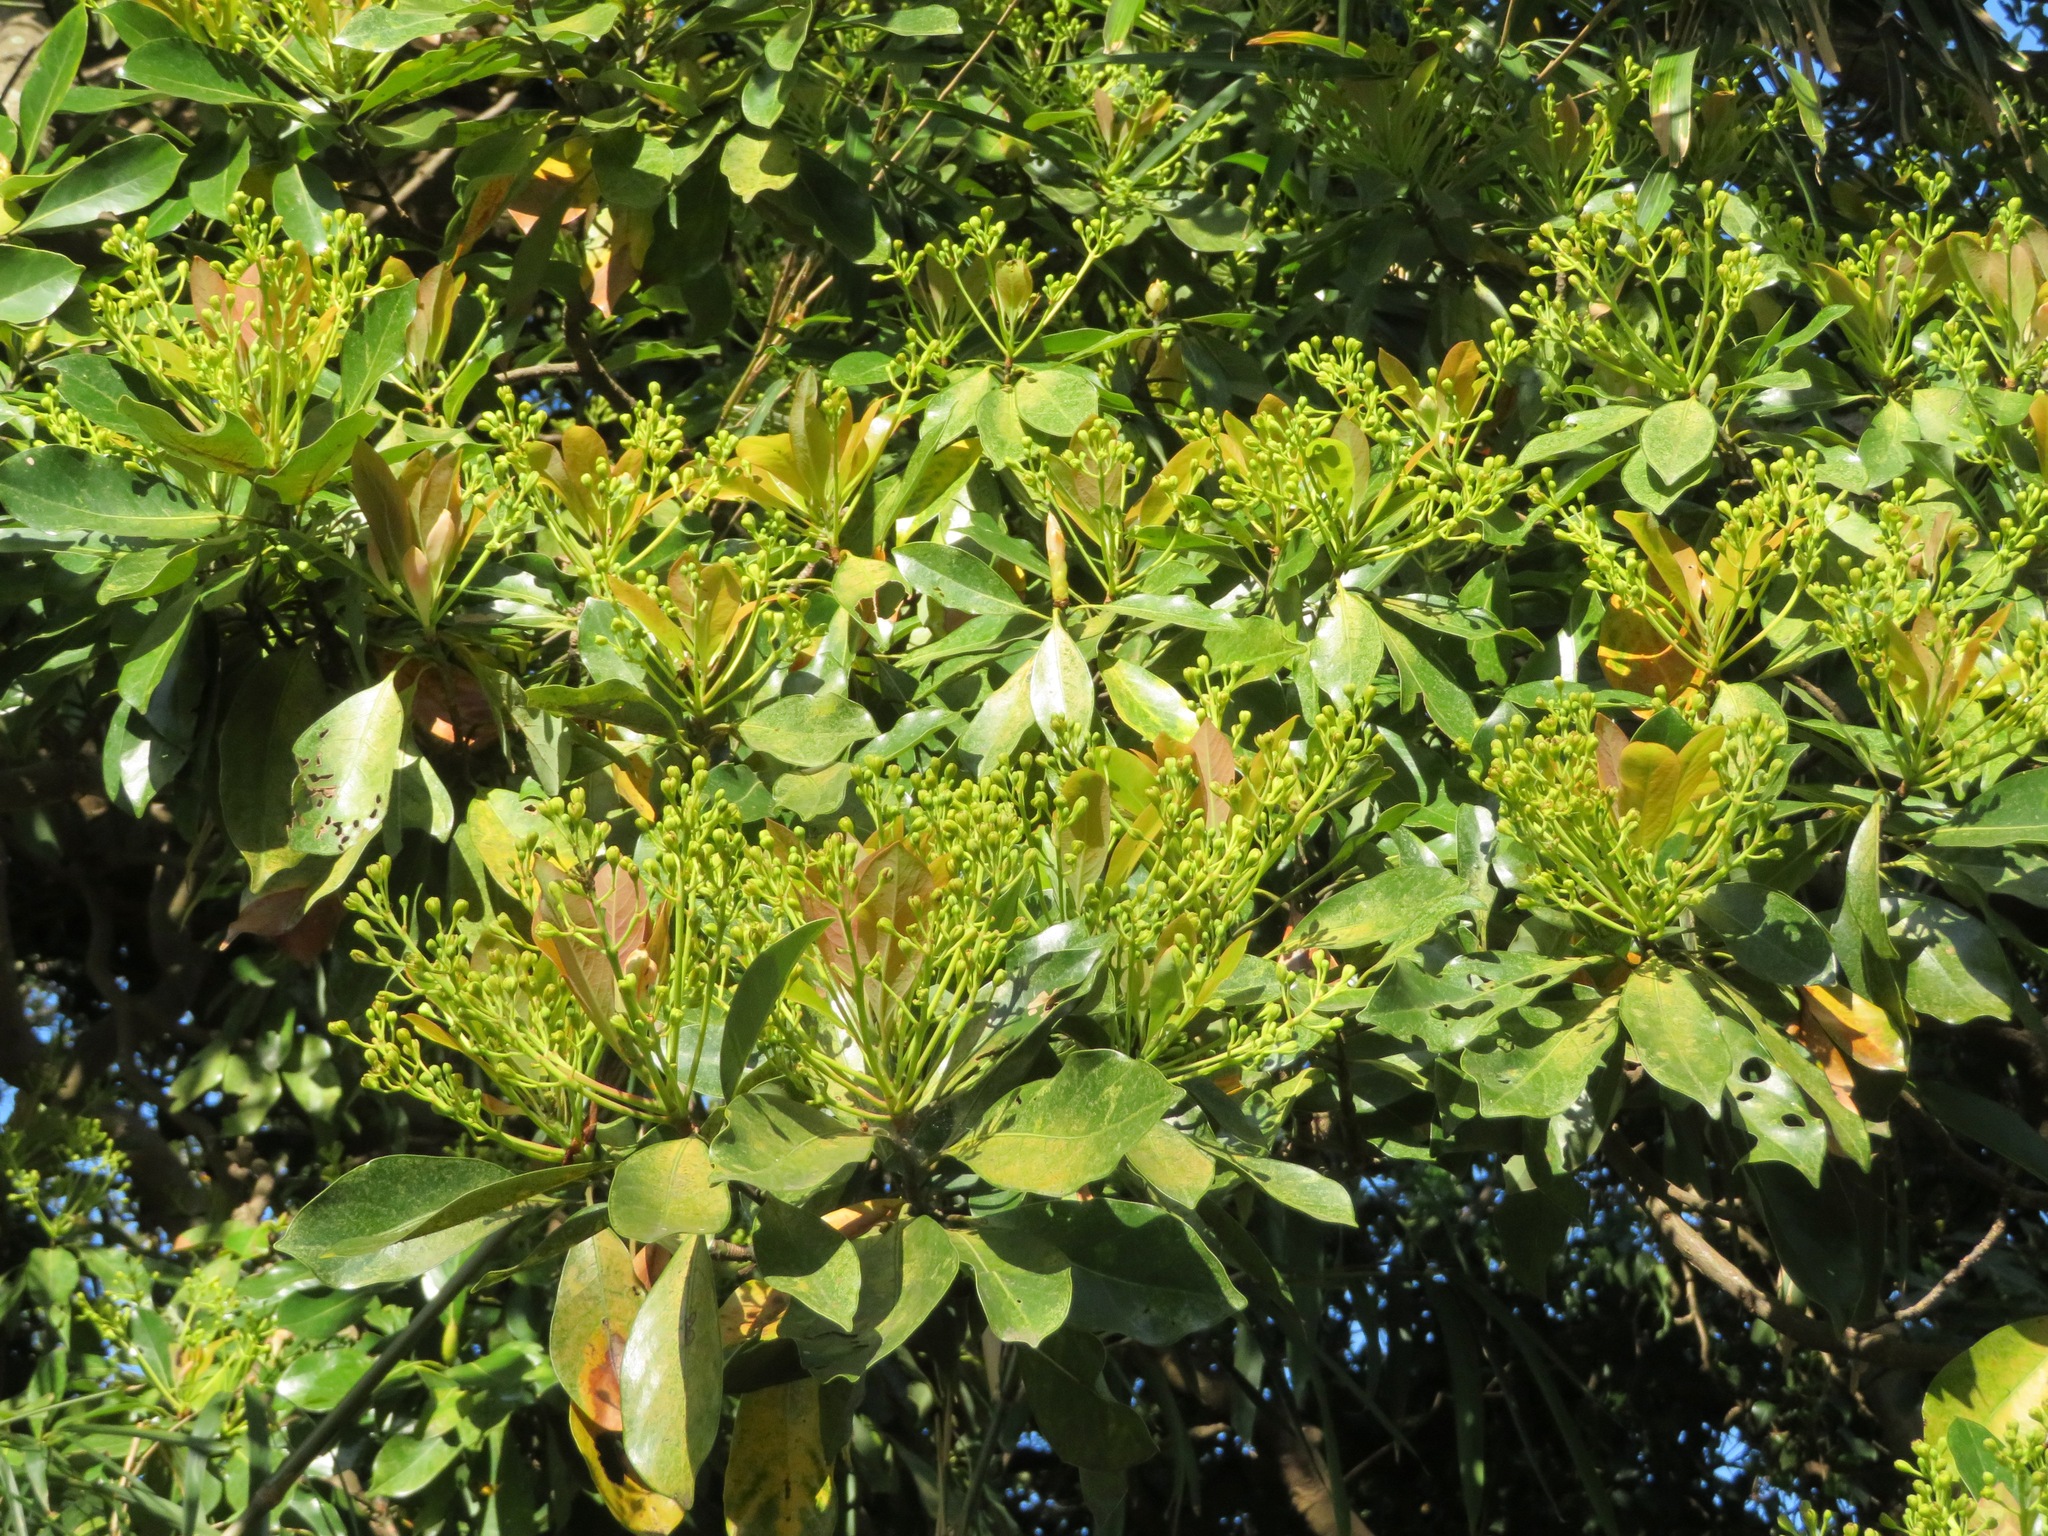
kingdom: Plantae
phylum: Tracheophyta
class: Magnoliopsida
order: Laurales
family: Lauraceae
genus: Machilus
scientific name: Machilus thunbergii
